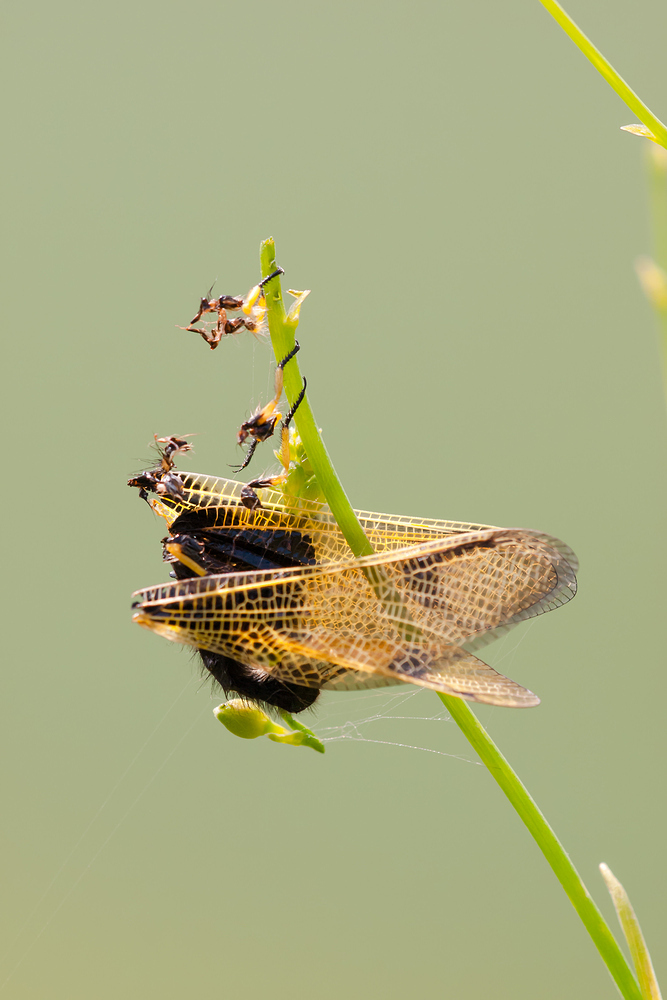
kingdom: Animalia
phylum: Arthropoda
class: Insecta
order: Neuroptera
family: Ascalaphidae
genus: Libelloides
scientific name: Libelloides longicornis
